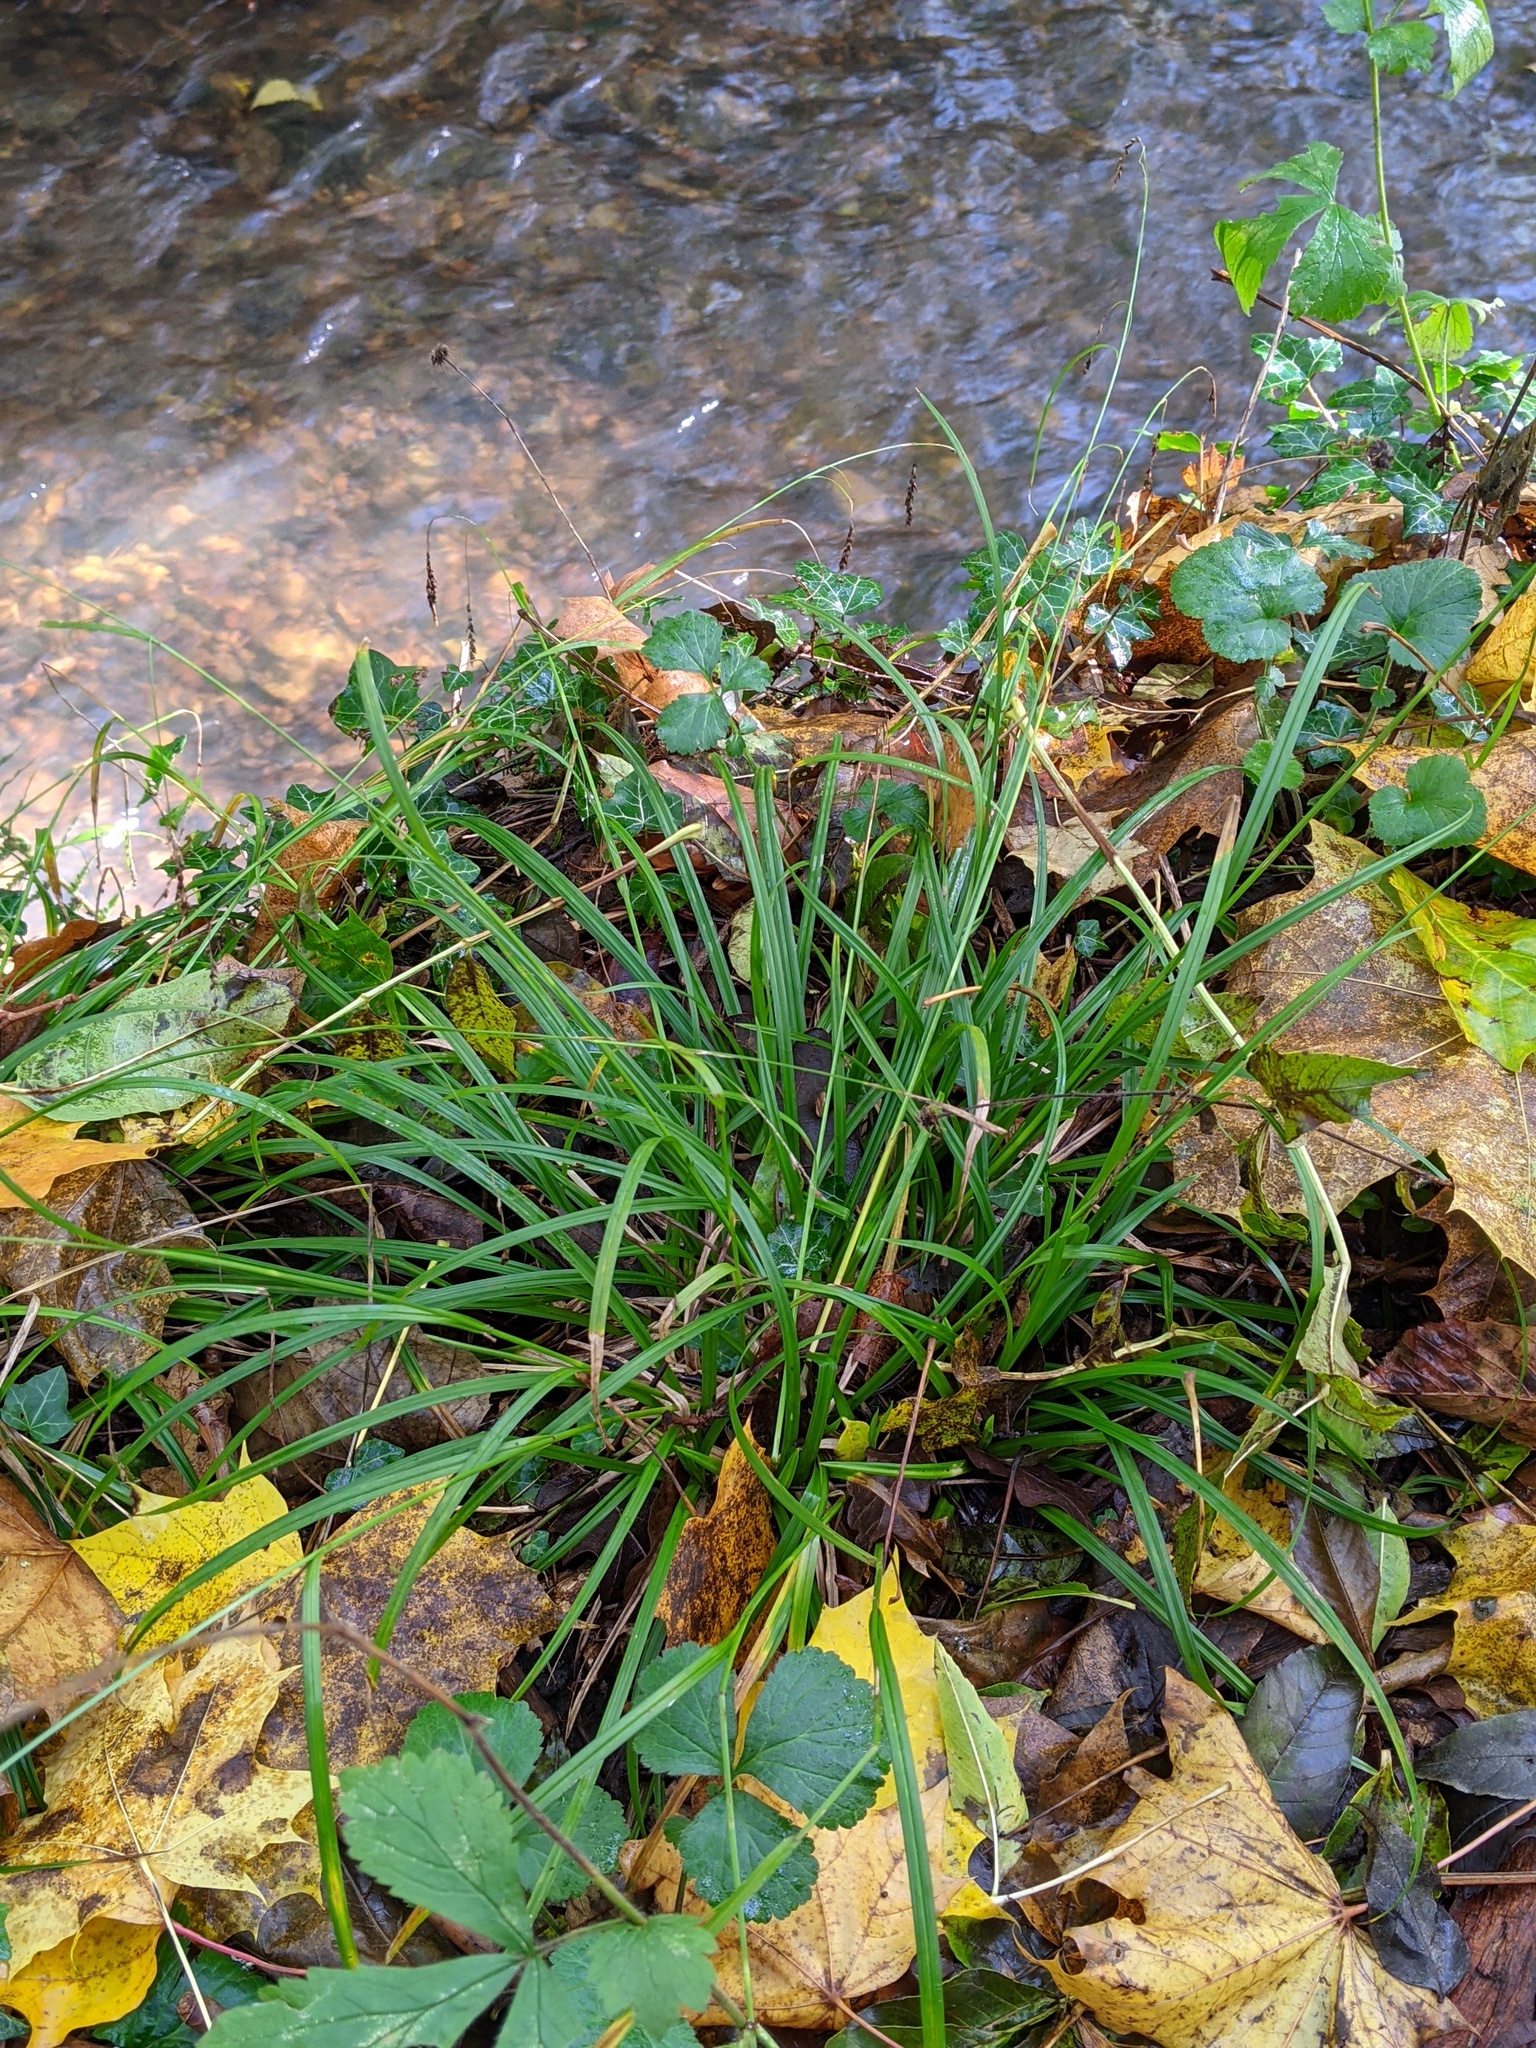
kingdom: Plantae
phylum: Tracheophyta
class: Liliopsida
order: Poales
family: Cyperaceae
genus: Carex
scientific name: Carex sylvatica
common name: Wood-sedge
